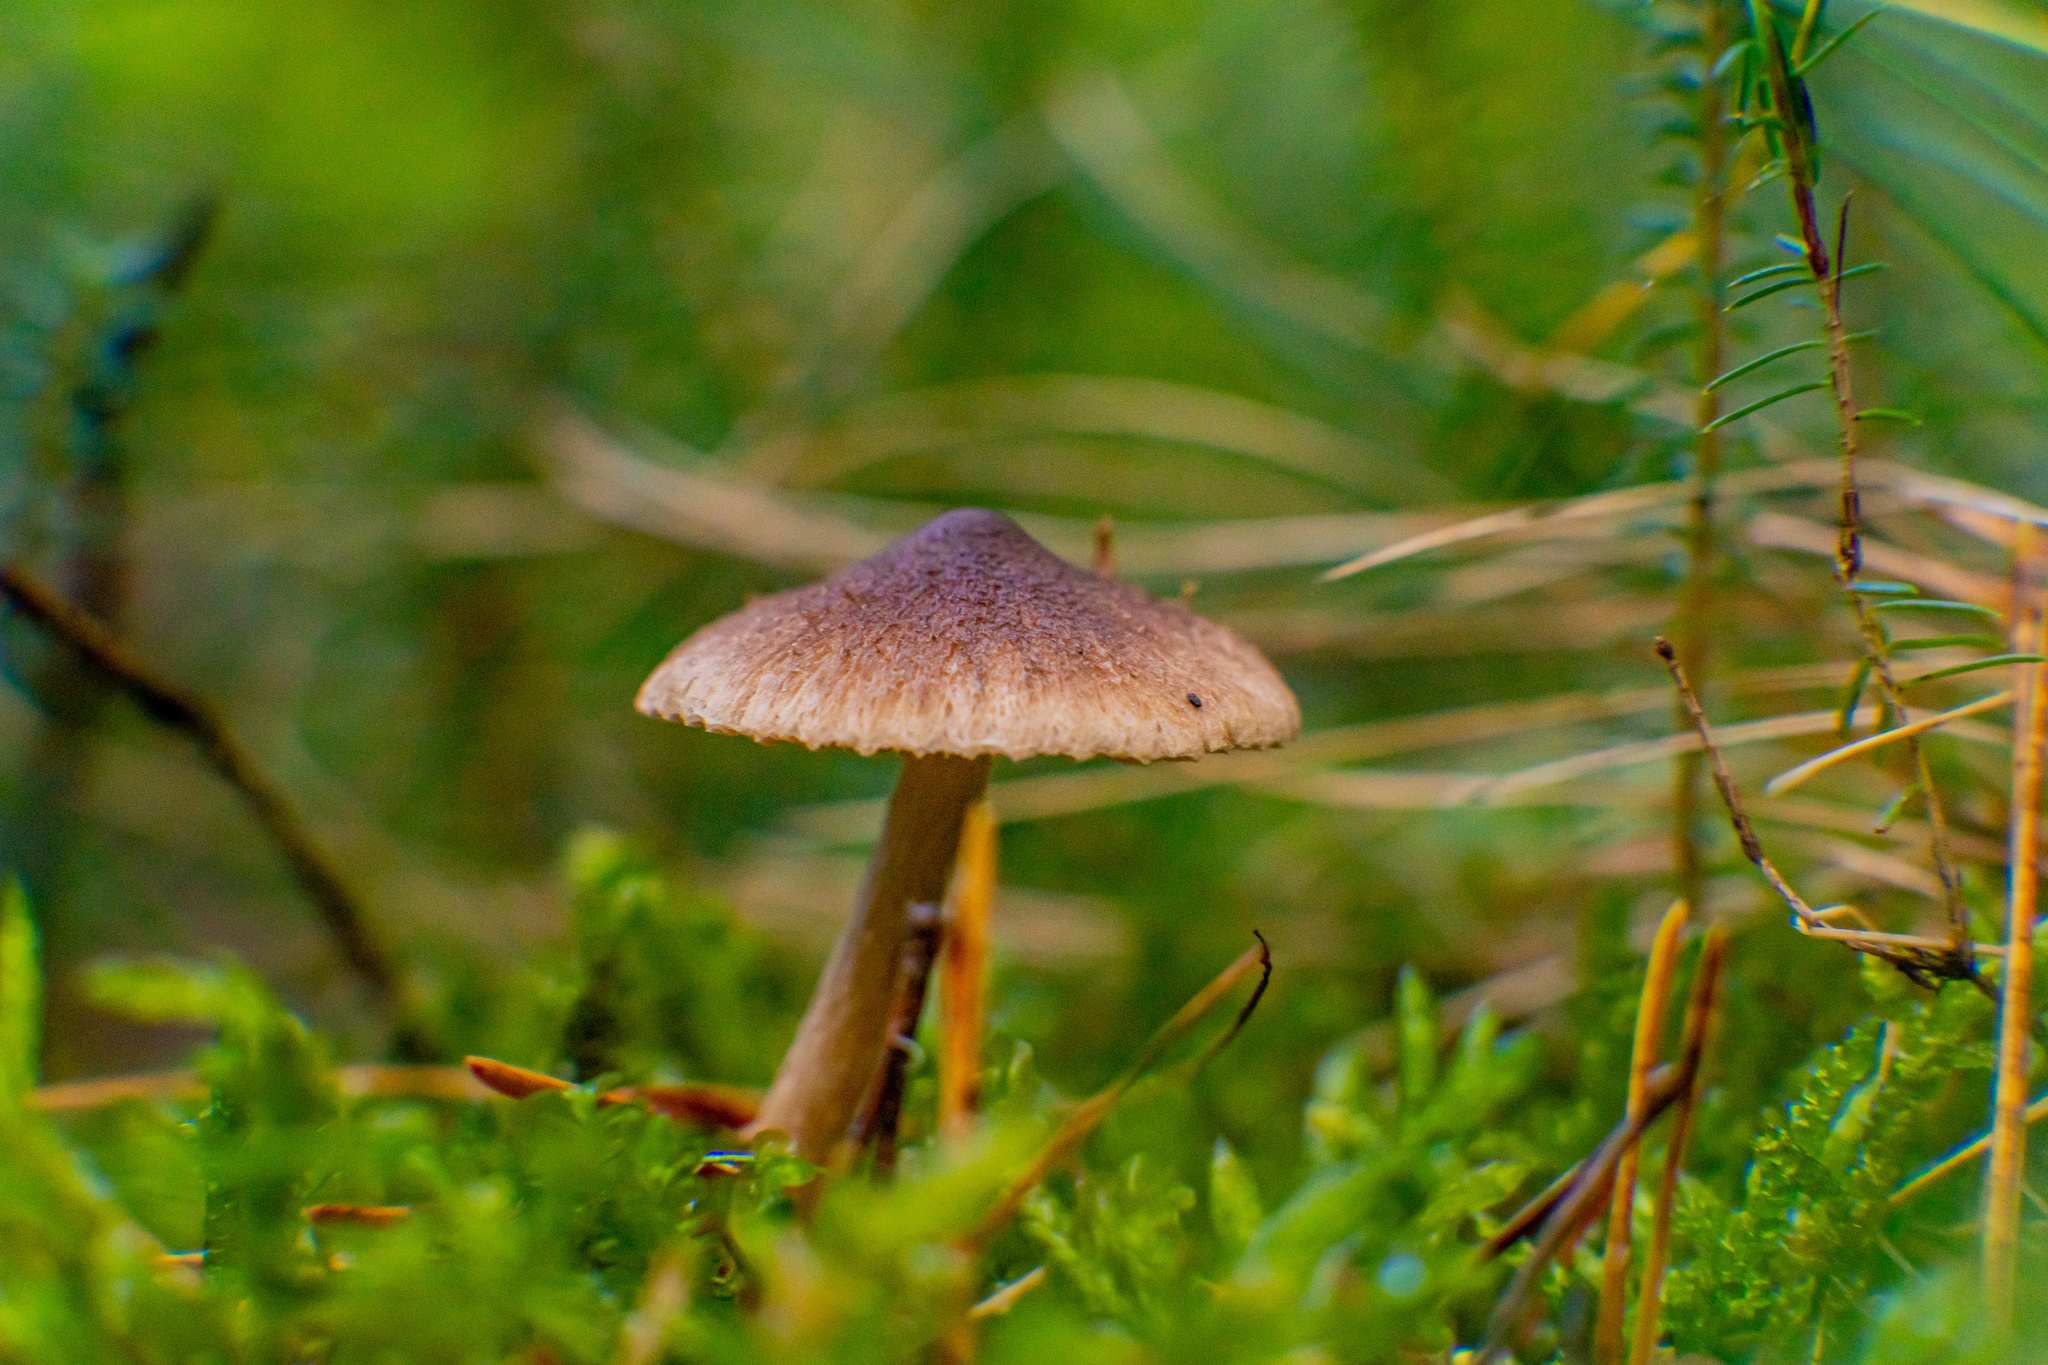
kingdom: Fungi
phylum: Basidiomycota
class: Agaricomycetes
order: Agaricales
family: Tricholomataceae
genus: Tricholoma
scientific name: Tricholoma vaccinum
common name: Scaly knight
